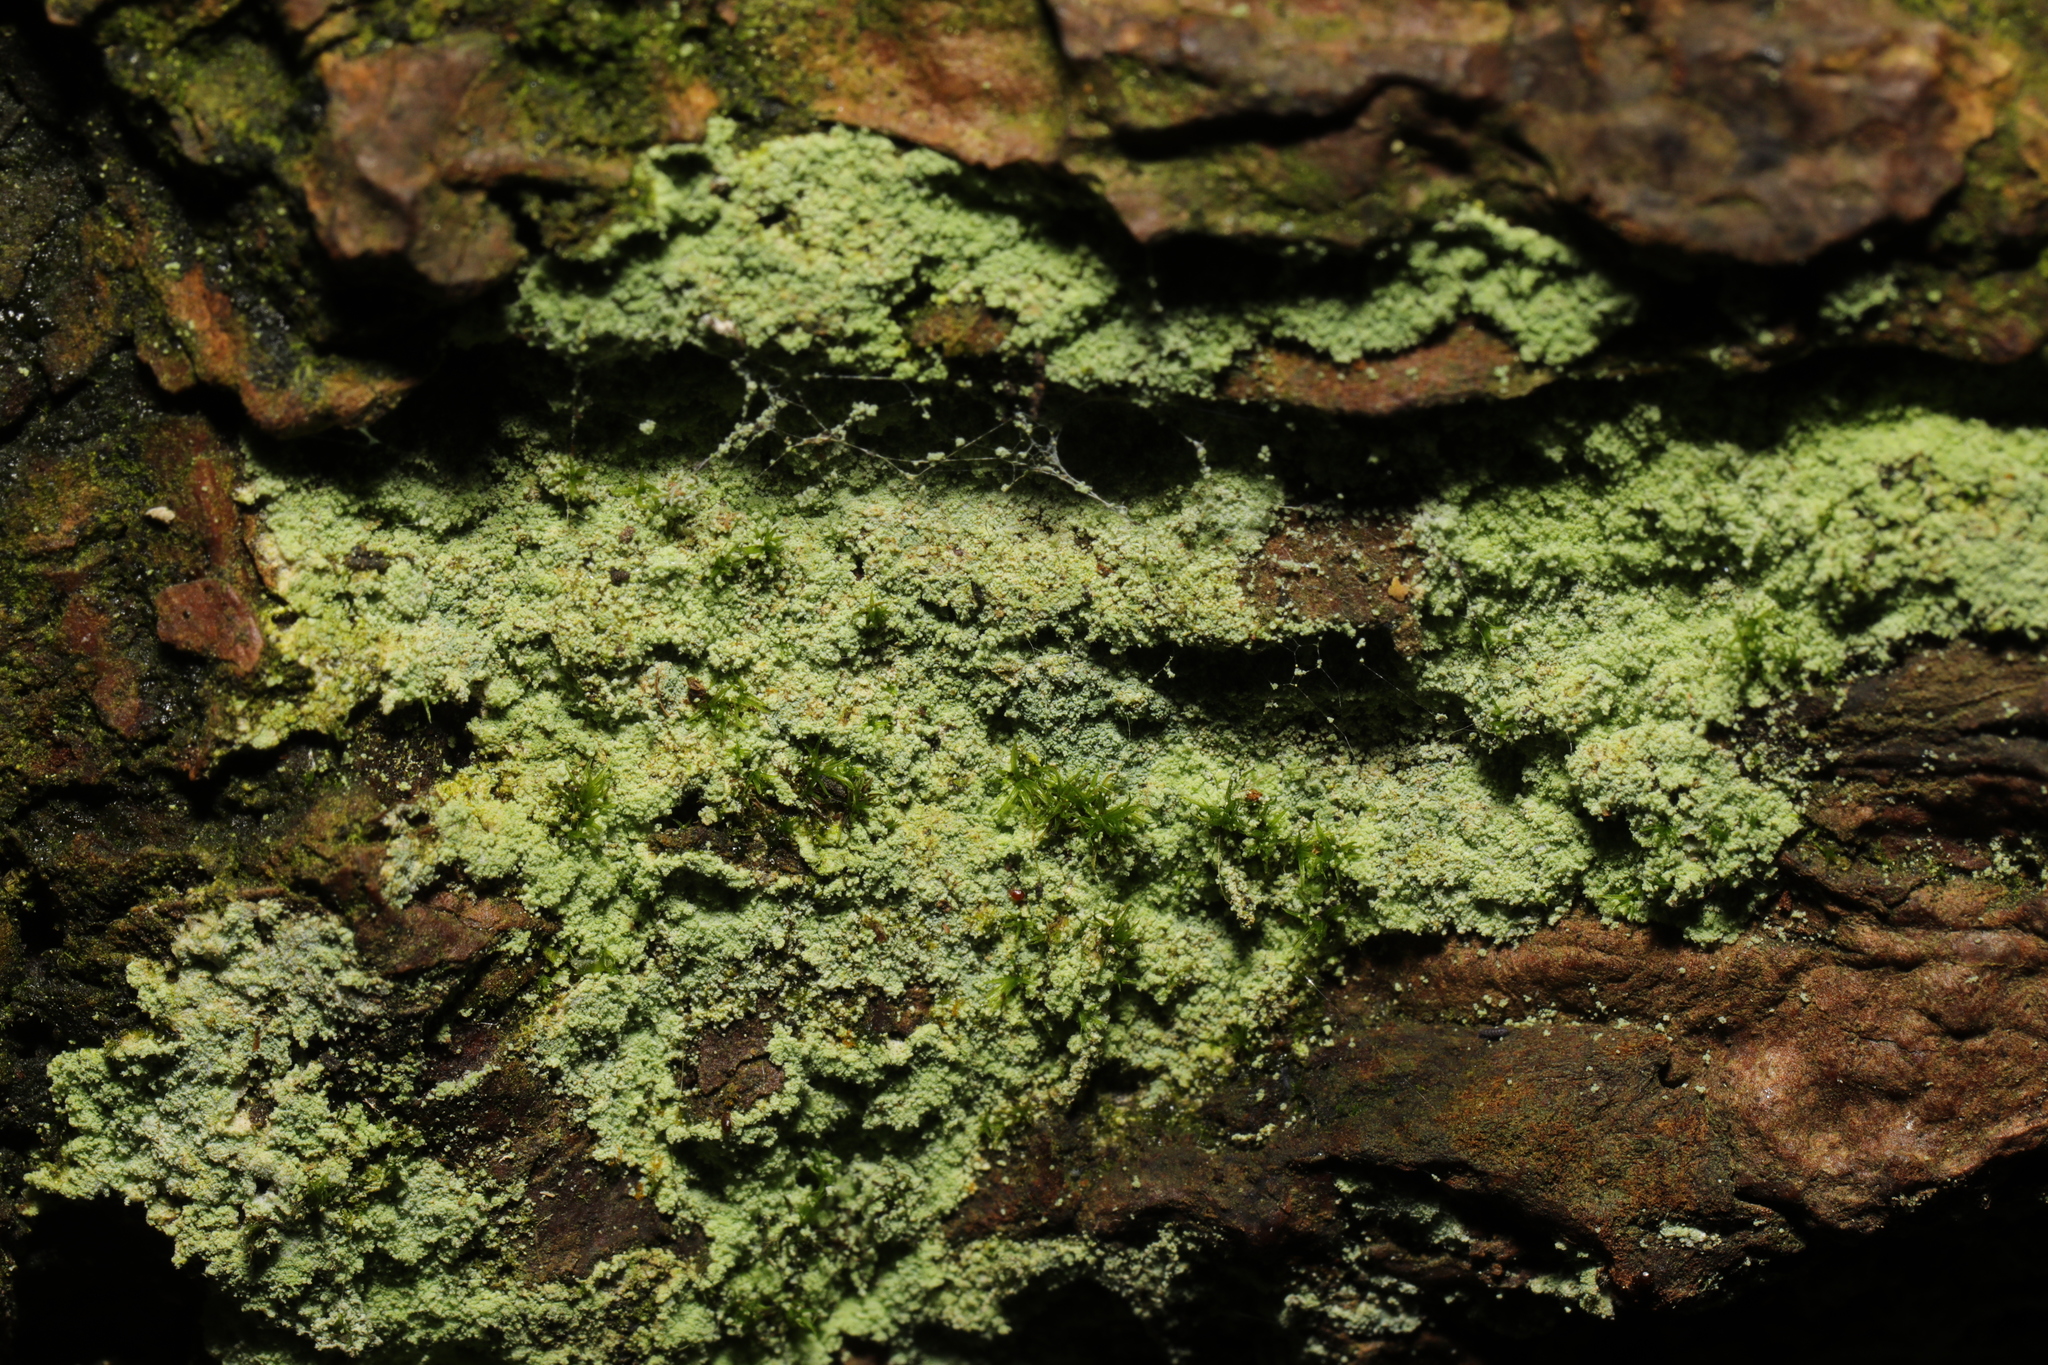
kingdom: Fungi
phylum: Ascomycota
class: Lecanoromycetes
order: Lecanorales
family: Stereocaulaceae
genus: Lepraria
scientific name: Lepraria
